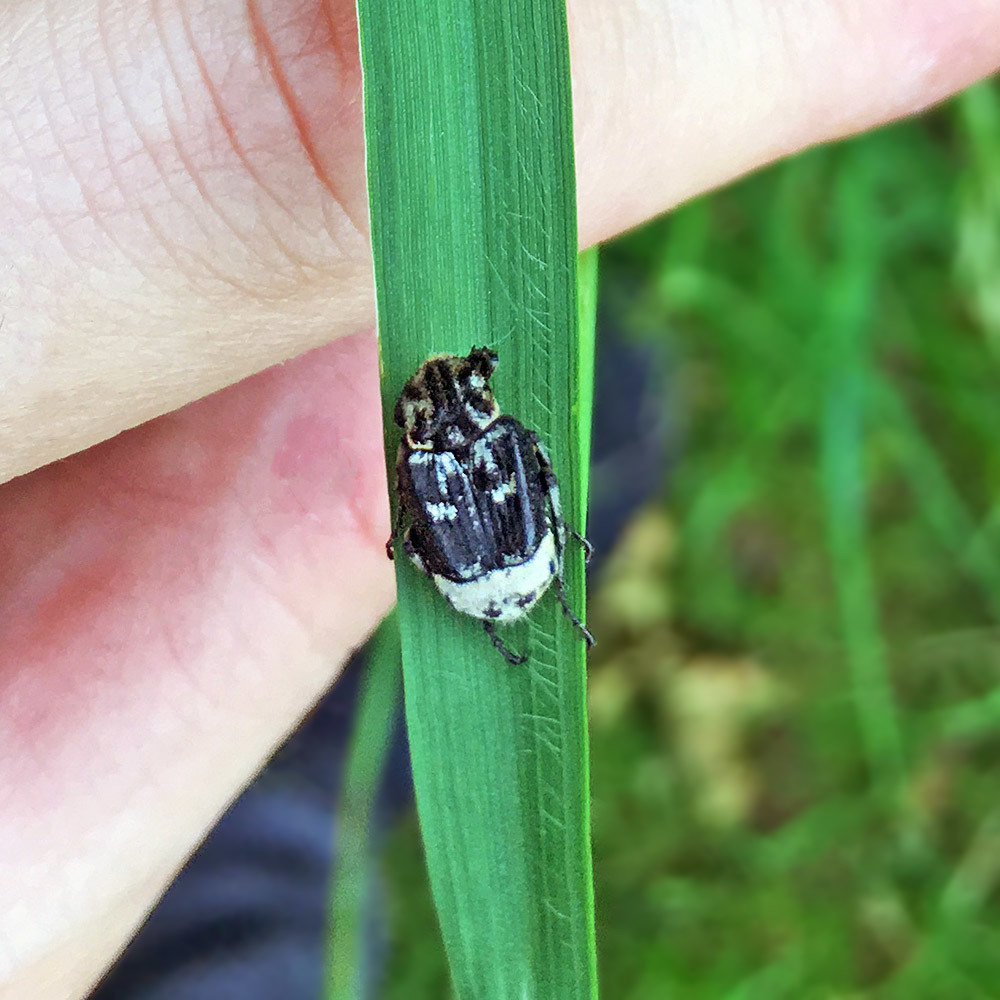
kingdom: Animalia
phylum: Arthropoda
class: Insecta
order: Coleoptera
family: Scarabaeidae
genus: Valgus
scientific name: Valgus hemipterus
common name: Bug flower chafer
